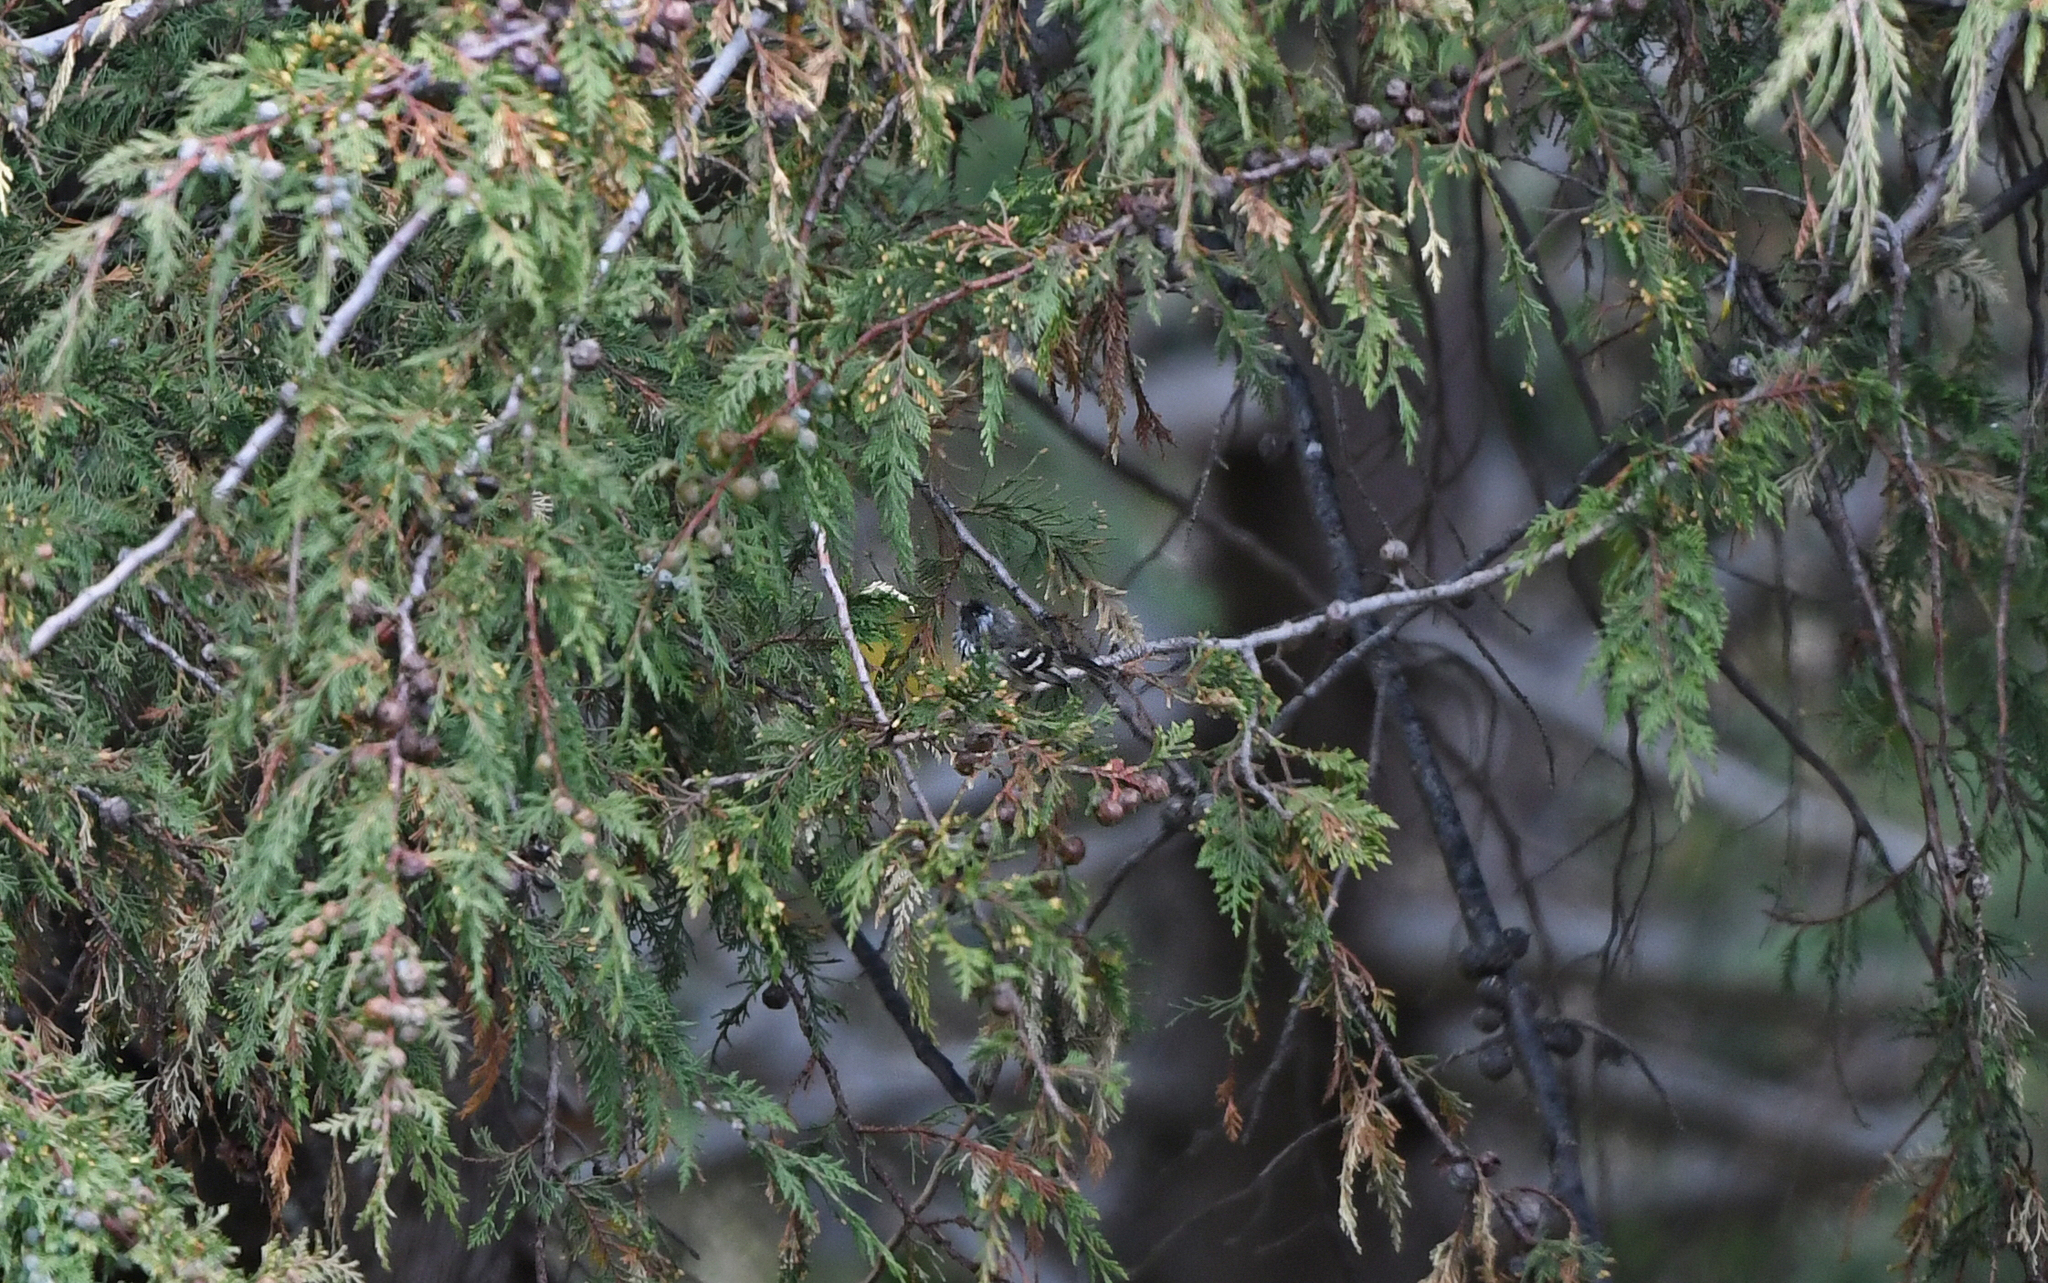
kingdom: Animalia
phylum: Chordata
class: Aves
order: Passeriformes
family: Tyrannidae
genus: Anairetes
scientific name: Anairetes flavirostris
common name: Yellow-billed tit-tyrant
